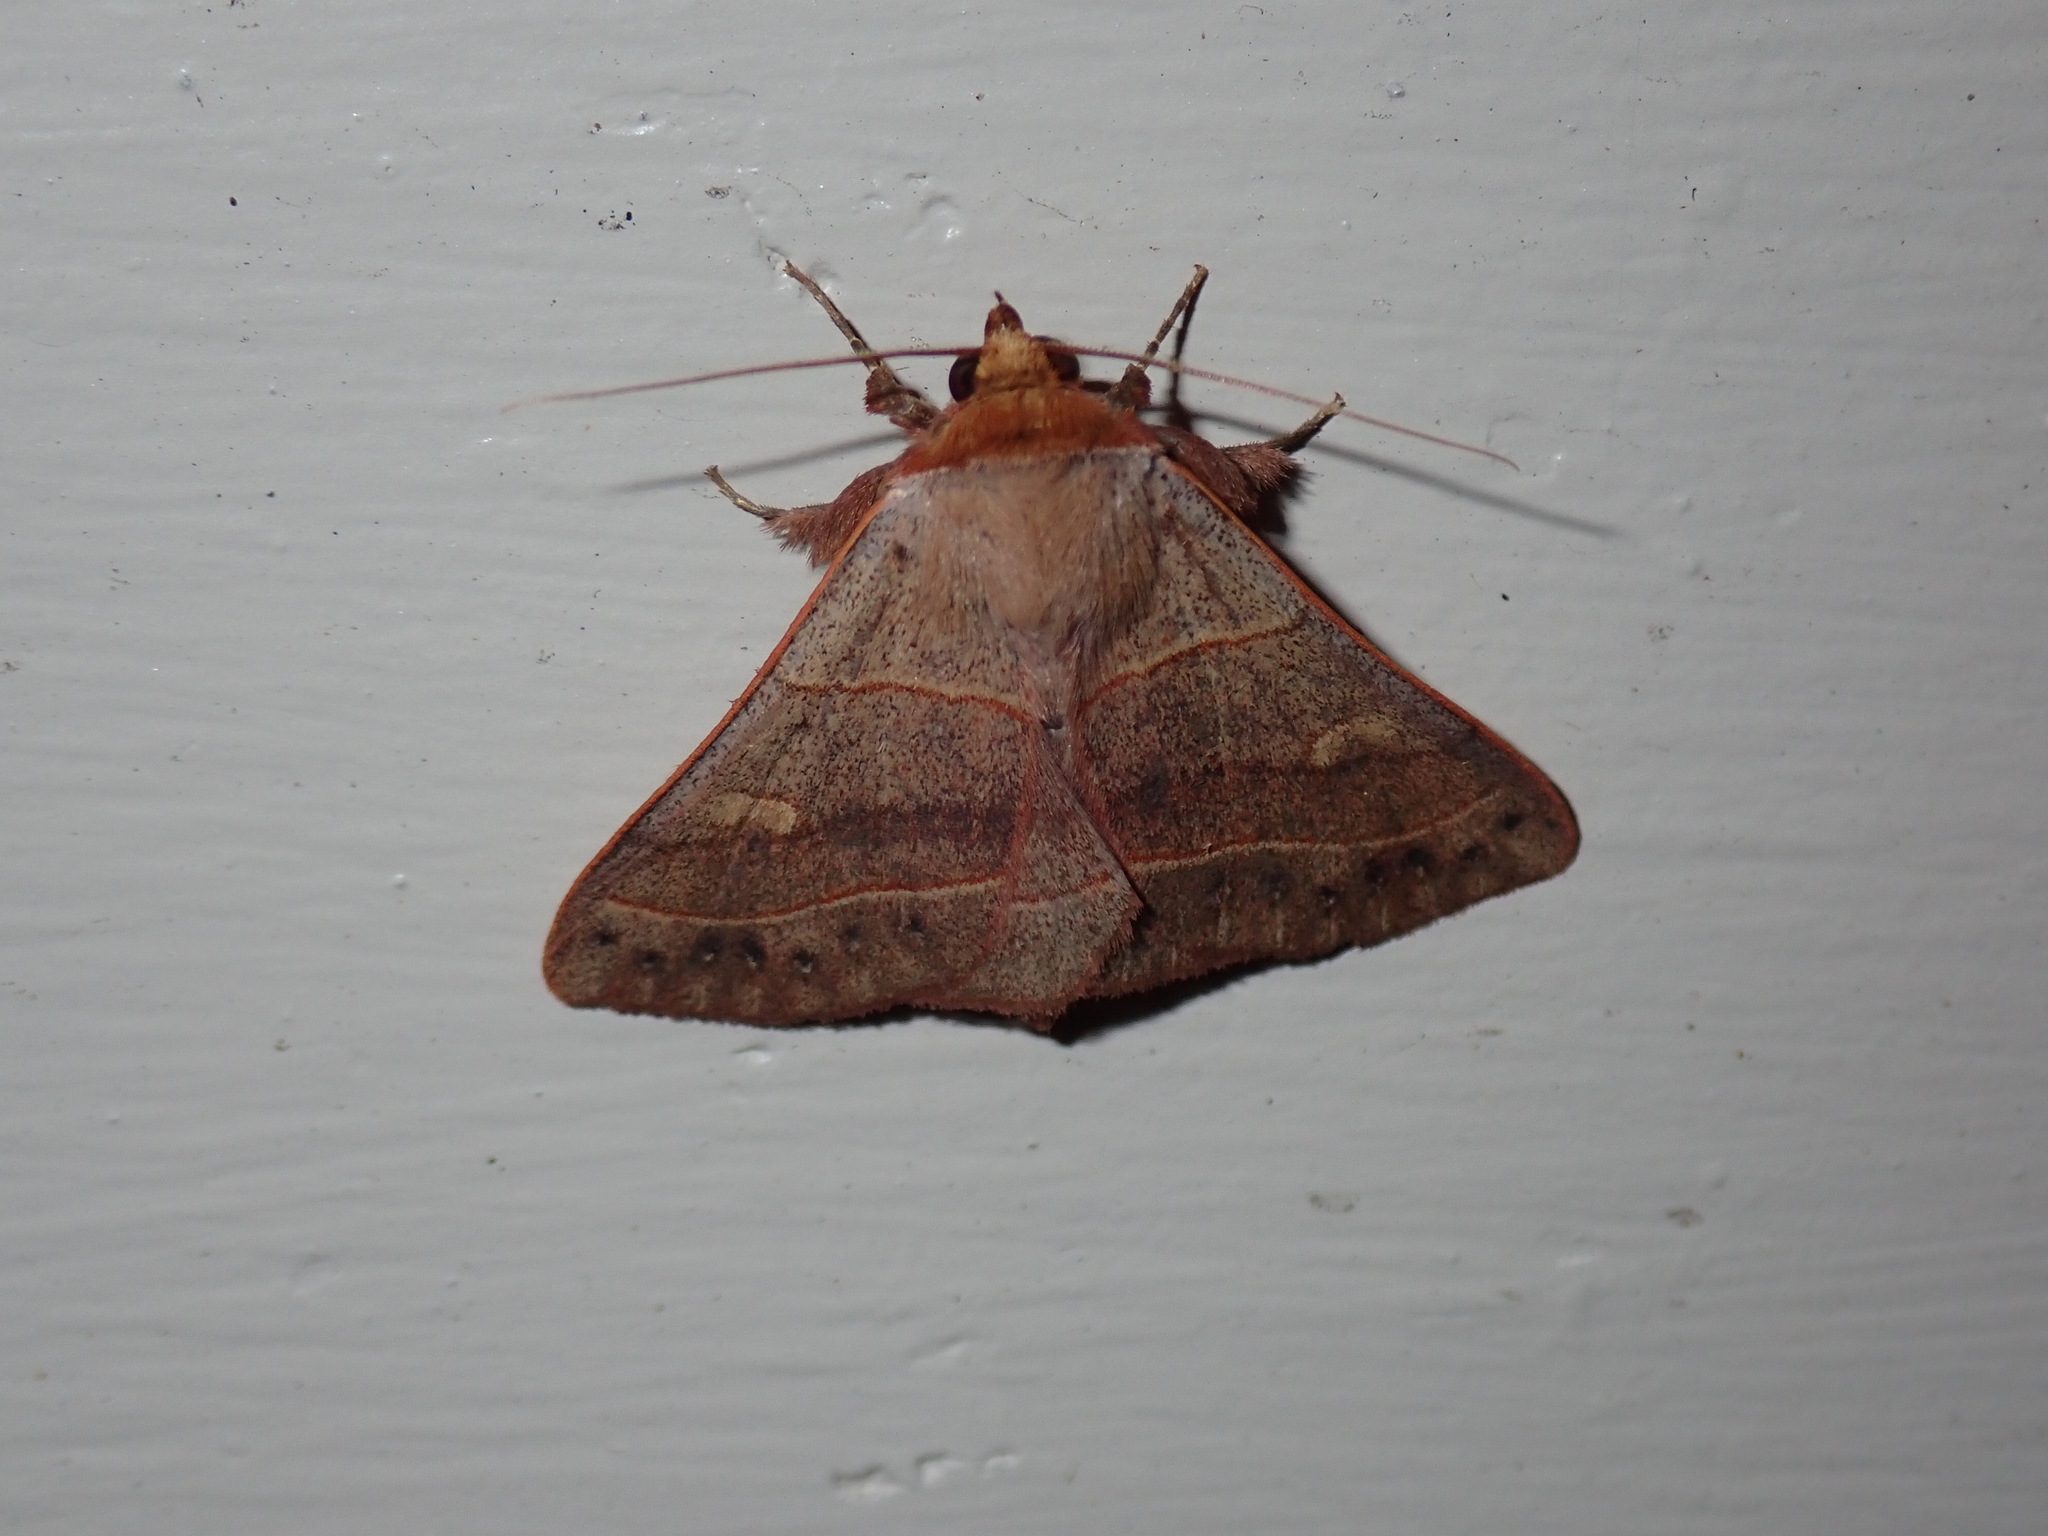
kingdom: Animalia
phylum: Arthropoda
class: Insecta
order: Lepidoptera
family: Erebidae
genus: Panopoda
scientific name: Panopoda rufimargo
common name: Red-lined panopoda moth
